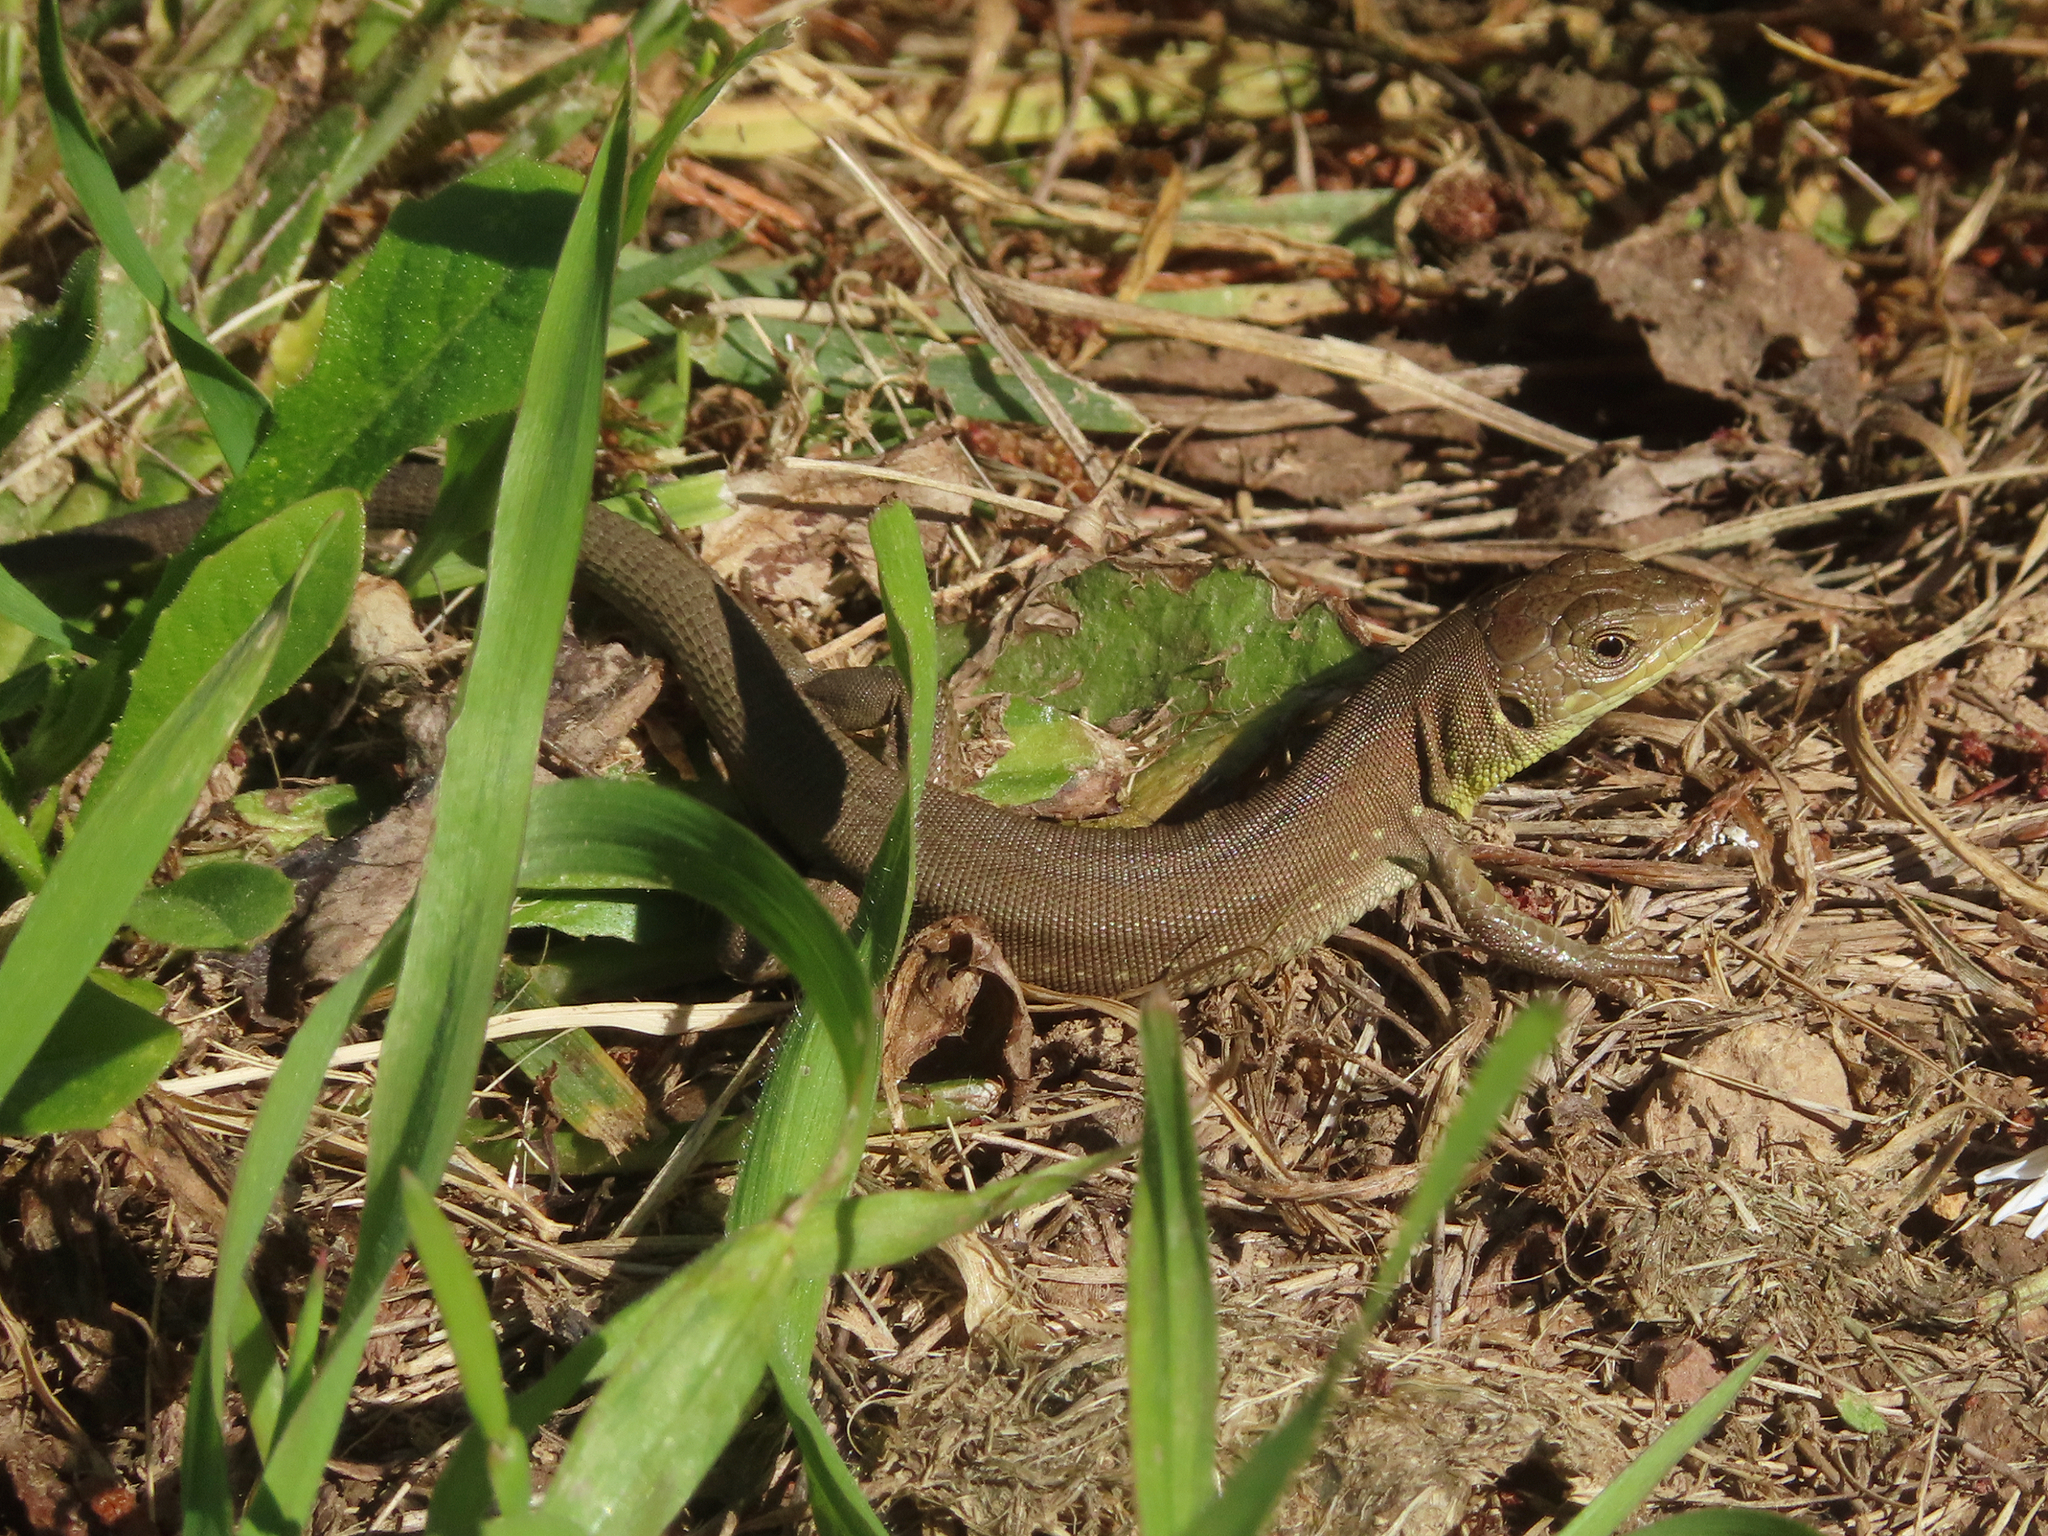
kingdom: Animalia
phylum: Chordata
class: Squamata
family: Lacertidae
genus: Lacerta
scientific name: Lacerta trilineata
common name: Balkan green lizard
